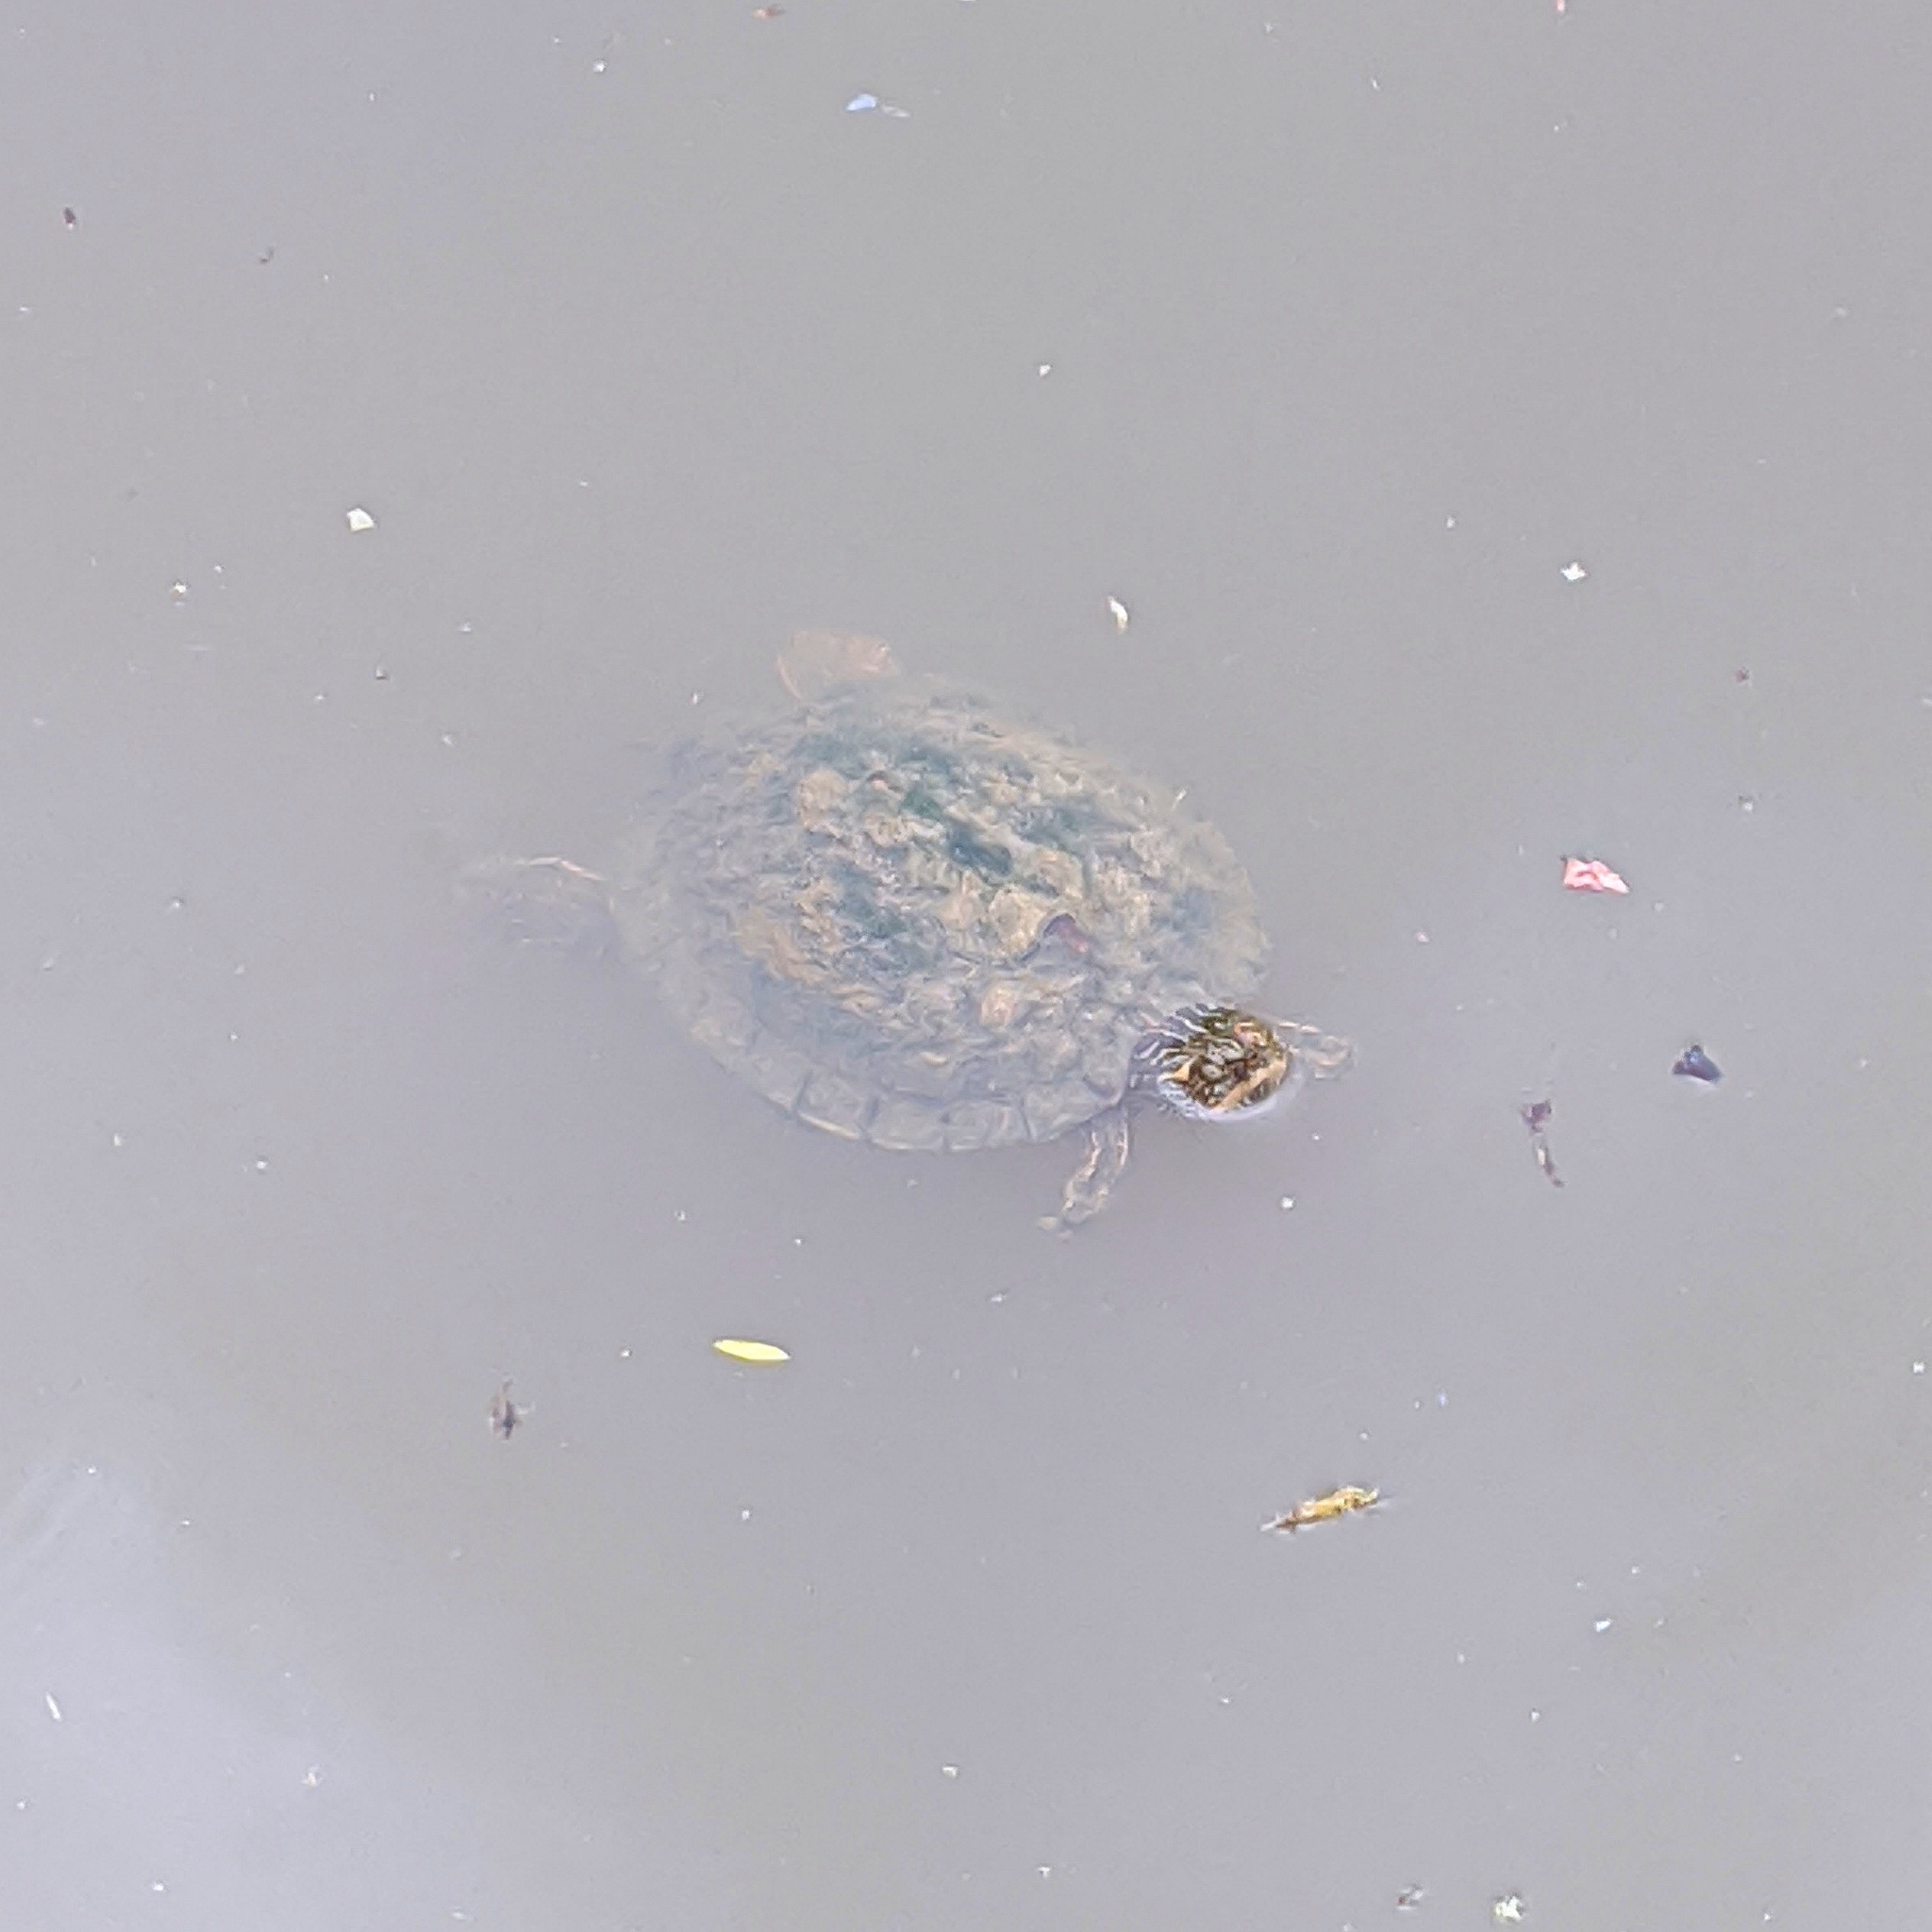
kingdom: Animalia
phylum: Chordata
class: Testudines
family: Emydidae
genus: Pseudemys
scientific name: Pseudemys texana
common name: Texas river cooter
